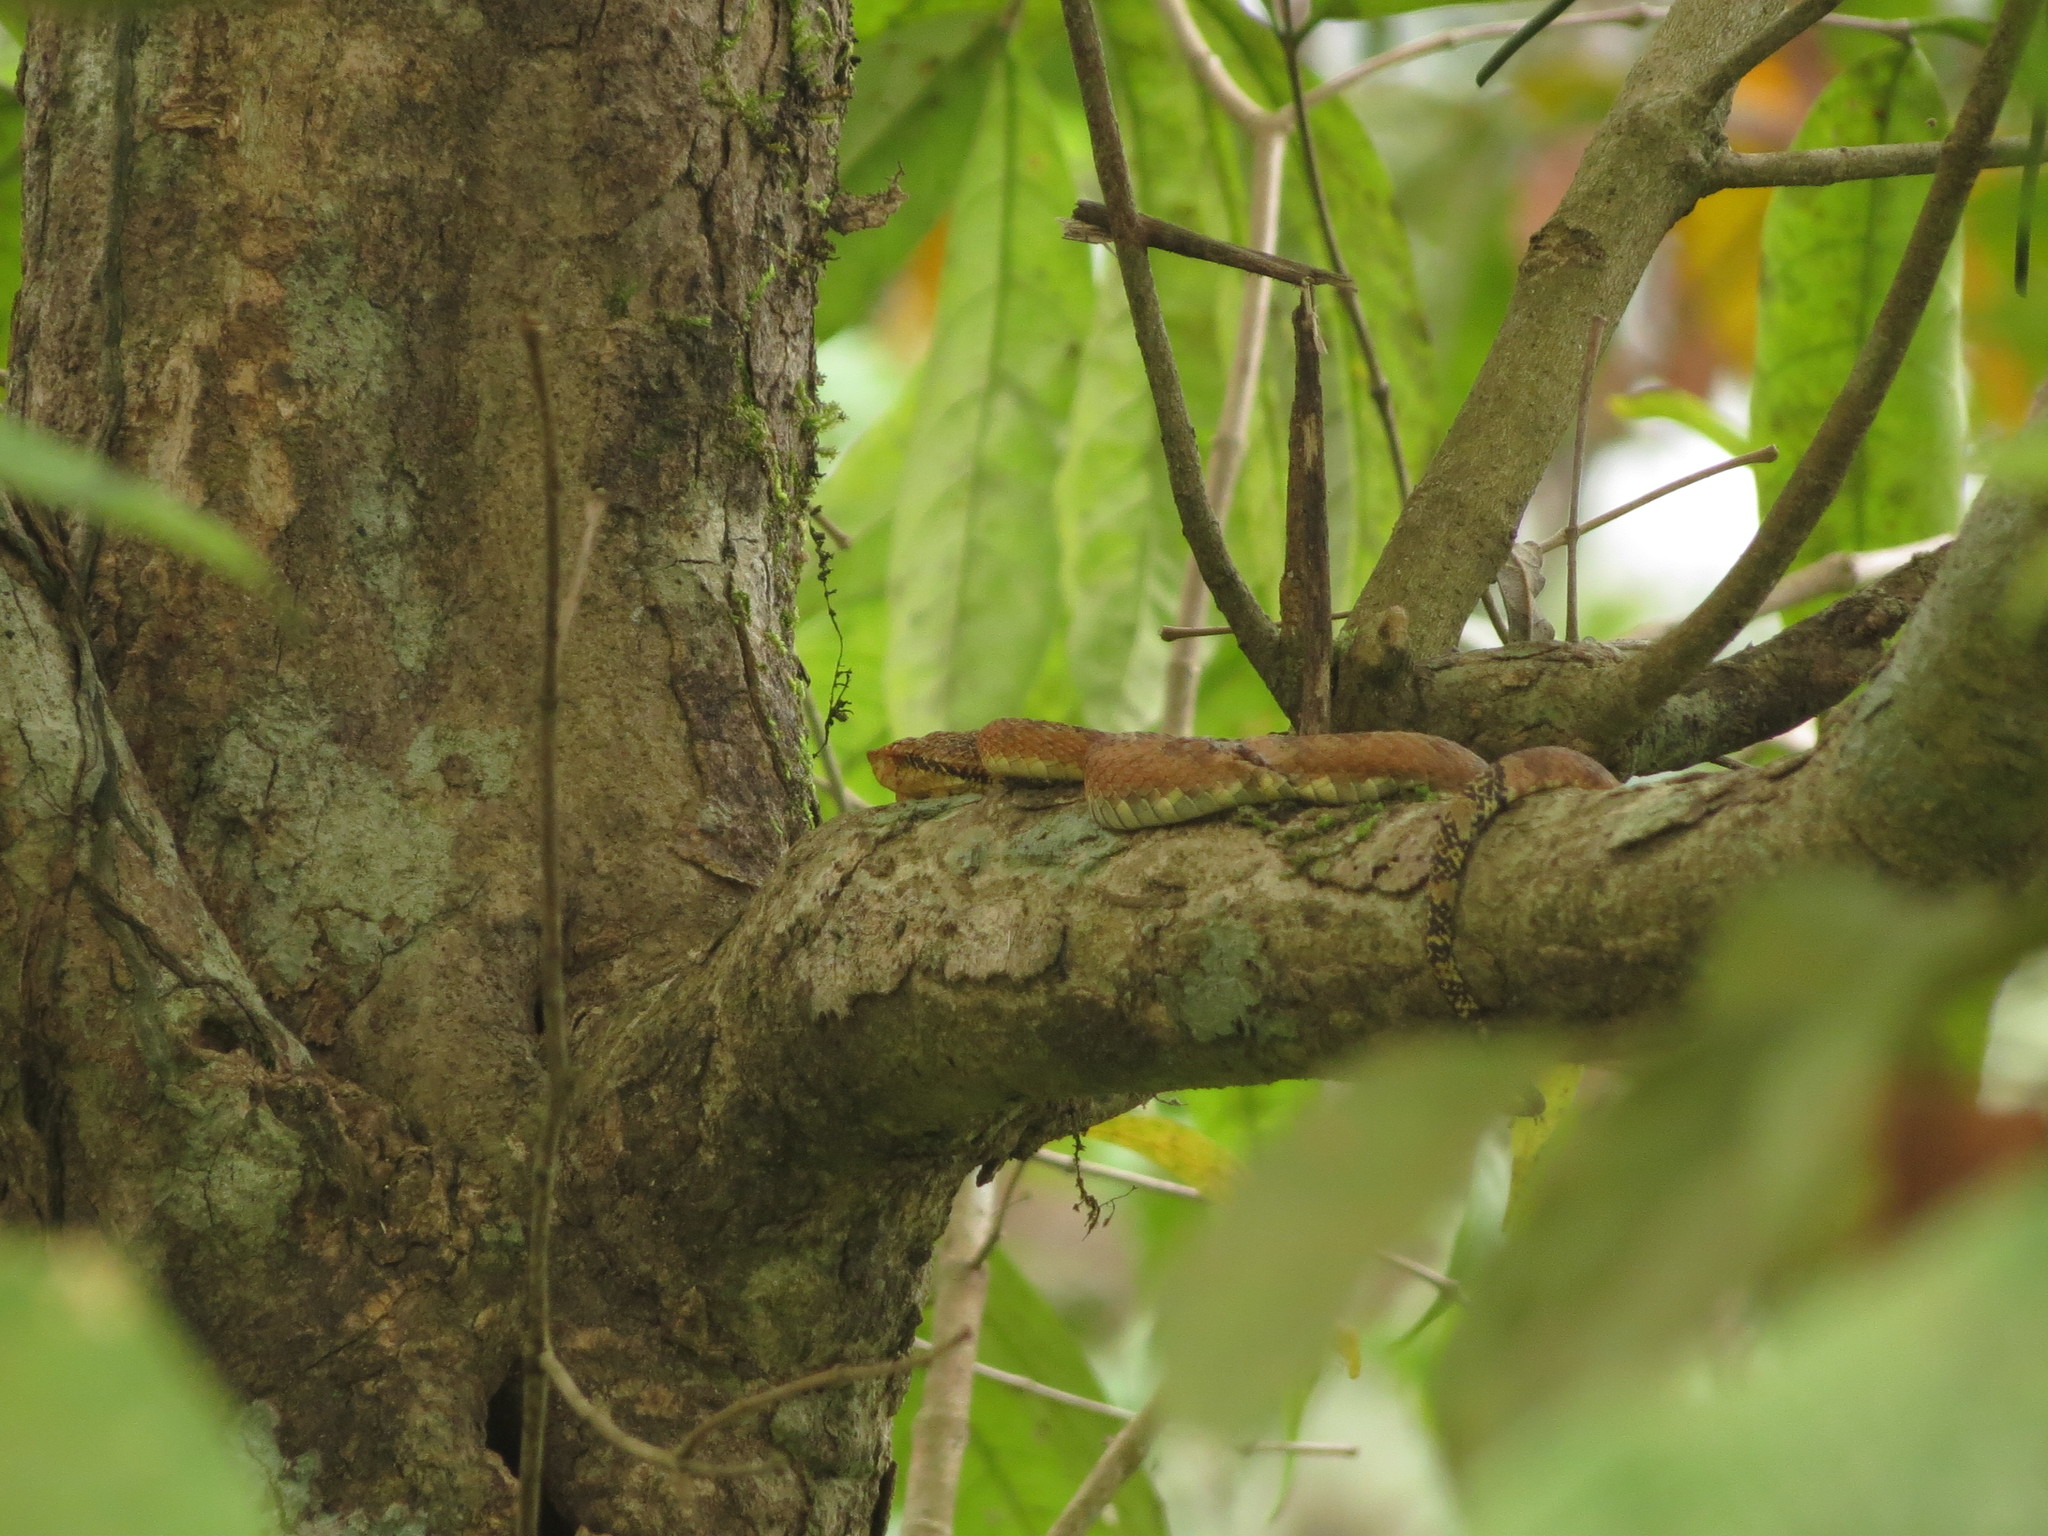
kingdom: Animalia
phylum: Chordata
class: Squamata
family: Viperidae
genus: Craspedocephalus
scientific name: Craspedocephalus anamallensis
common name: Malabarian pit viper
